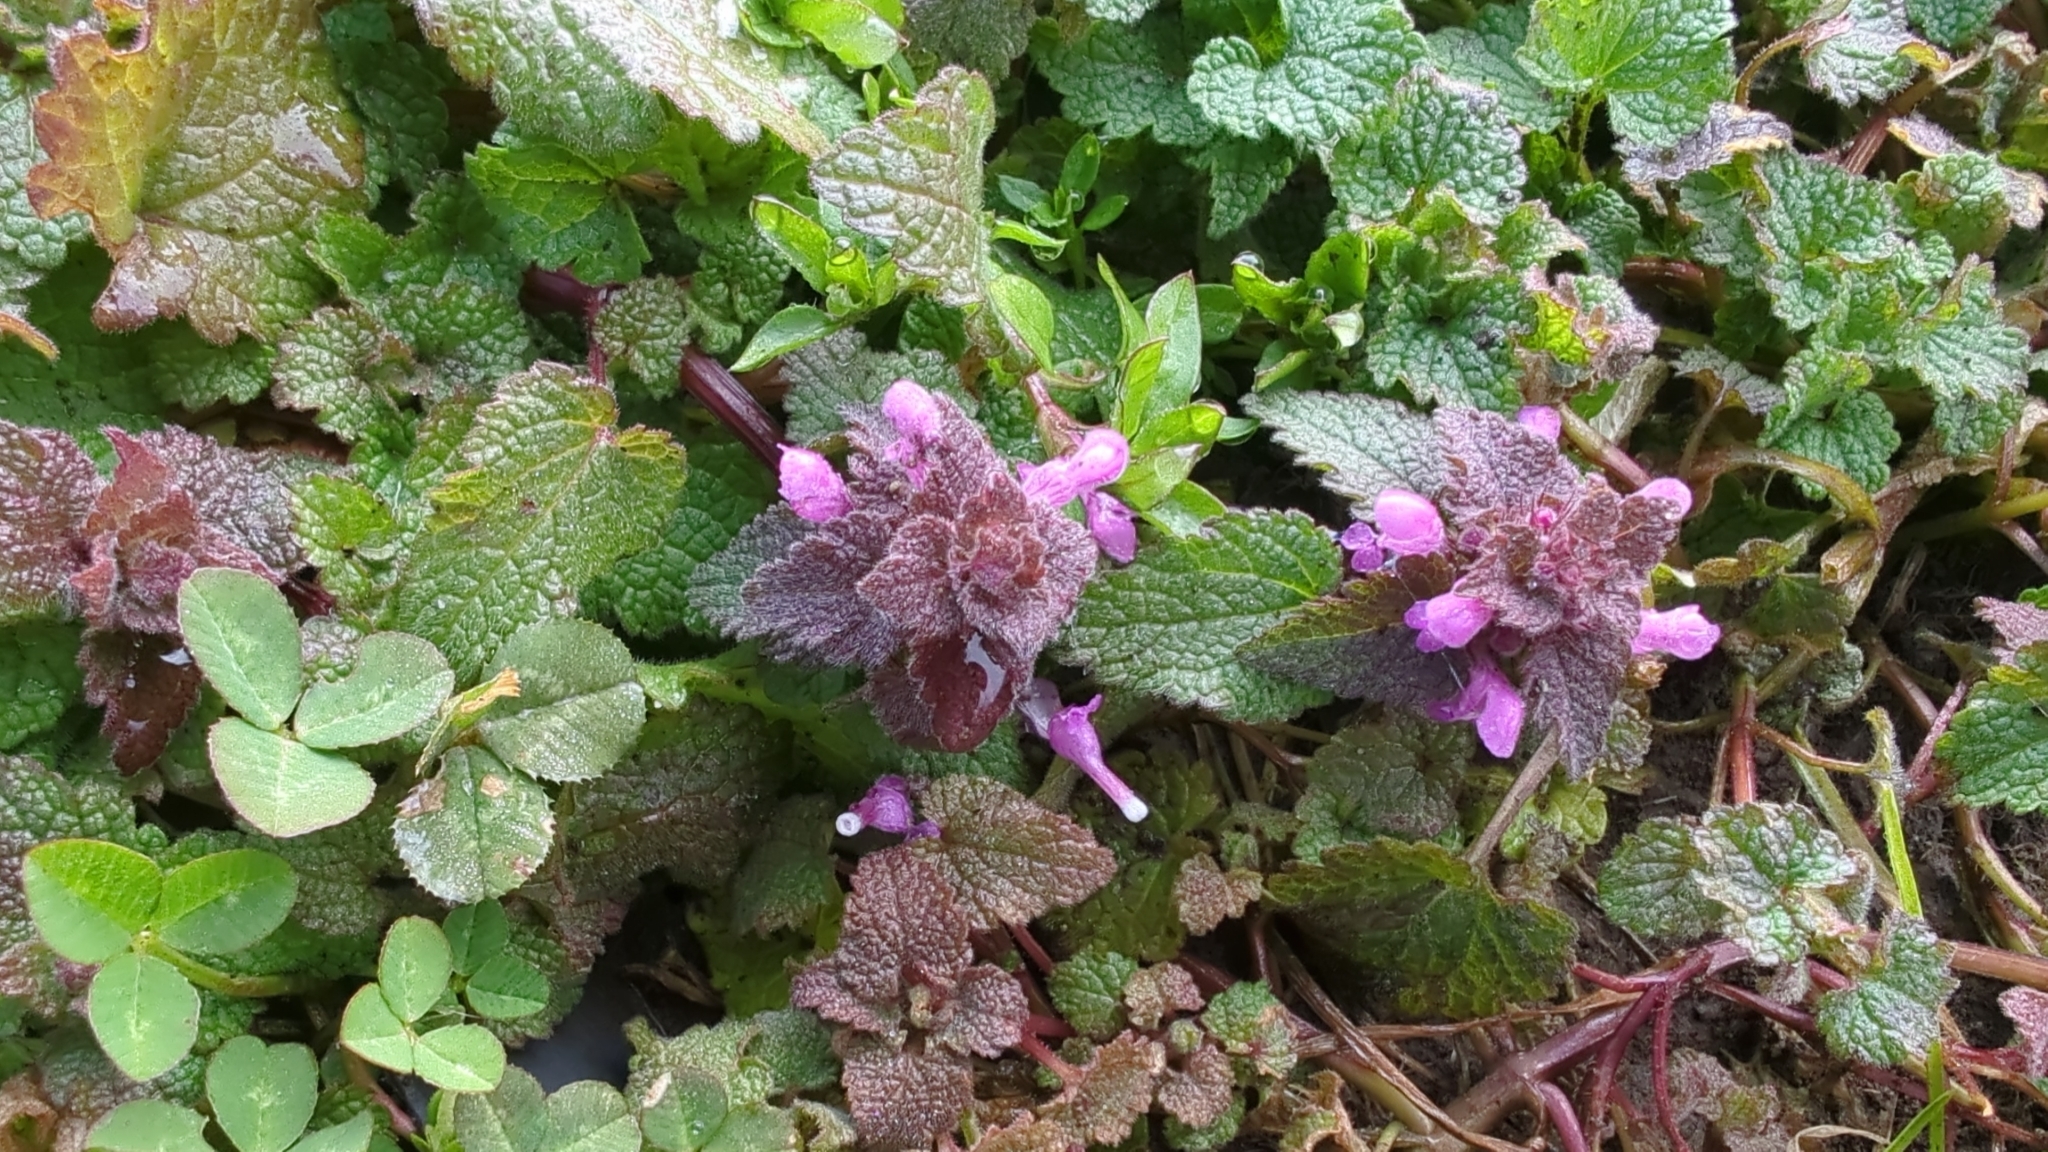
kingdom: Plantae
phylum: Tracheophyta
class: Magnoliopsida
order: Lamiales
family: Lamiaceae
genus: Lamium
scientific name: Lamium purpureum
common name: Red dead-nettle
